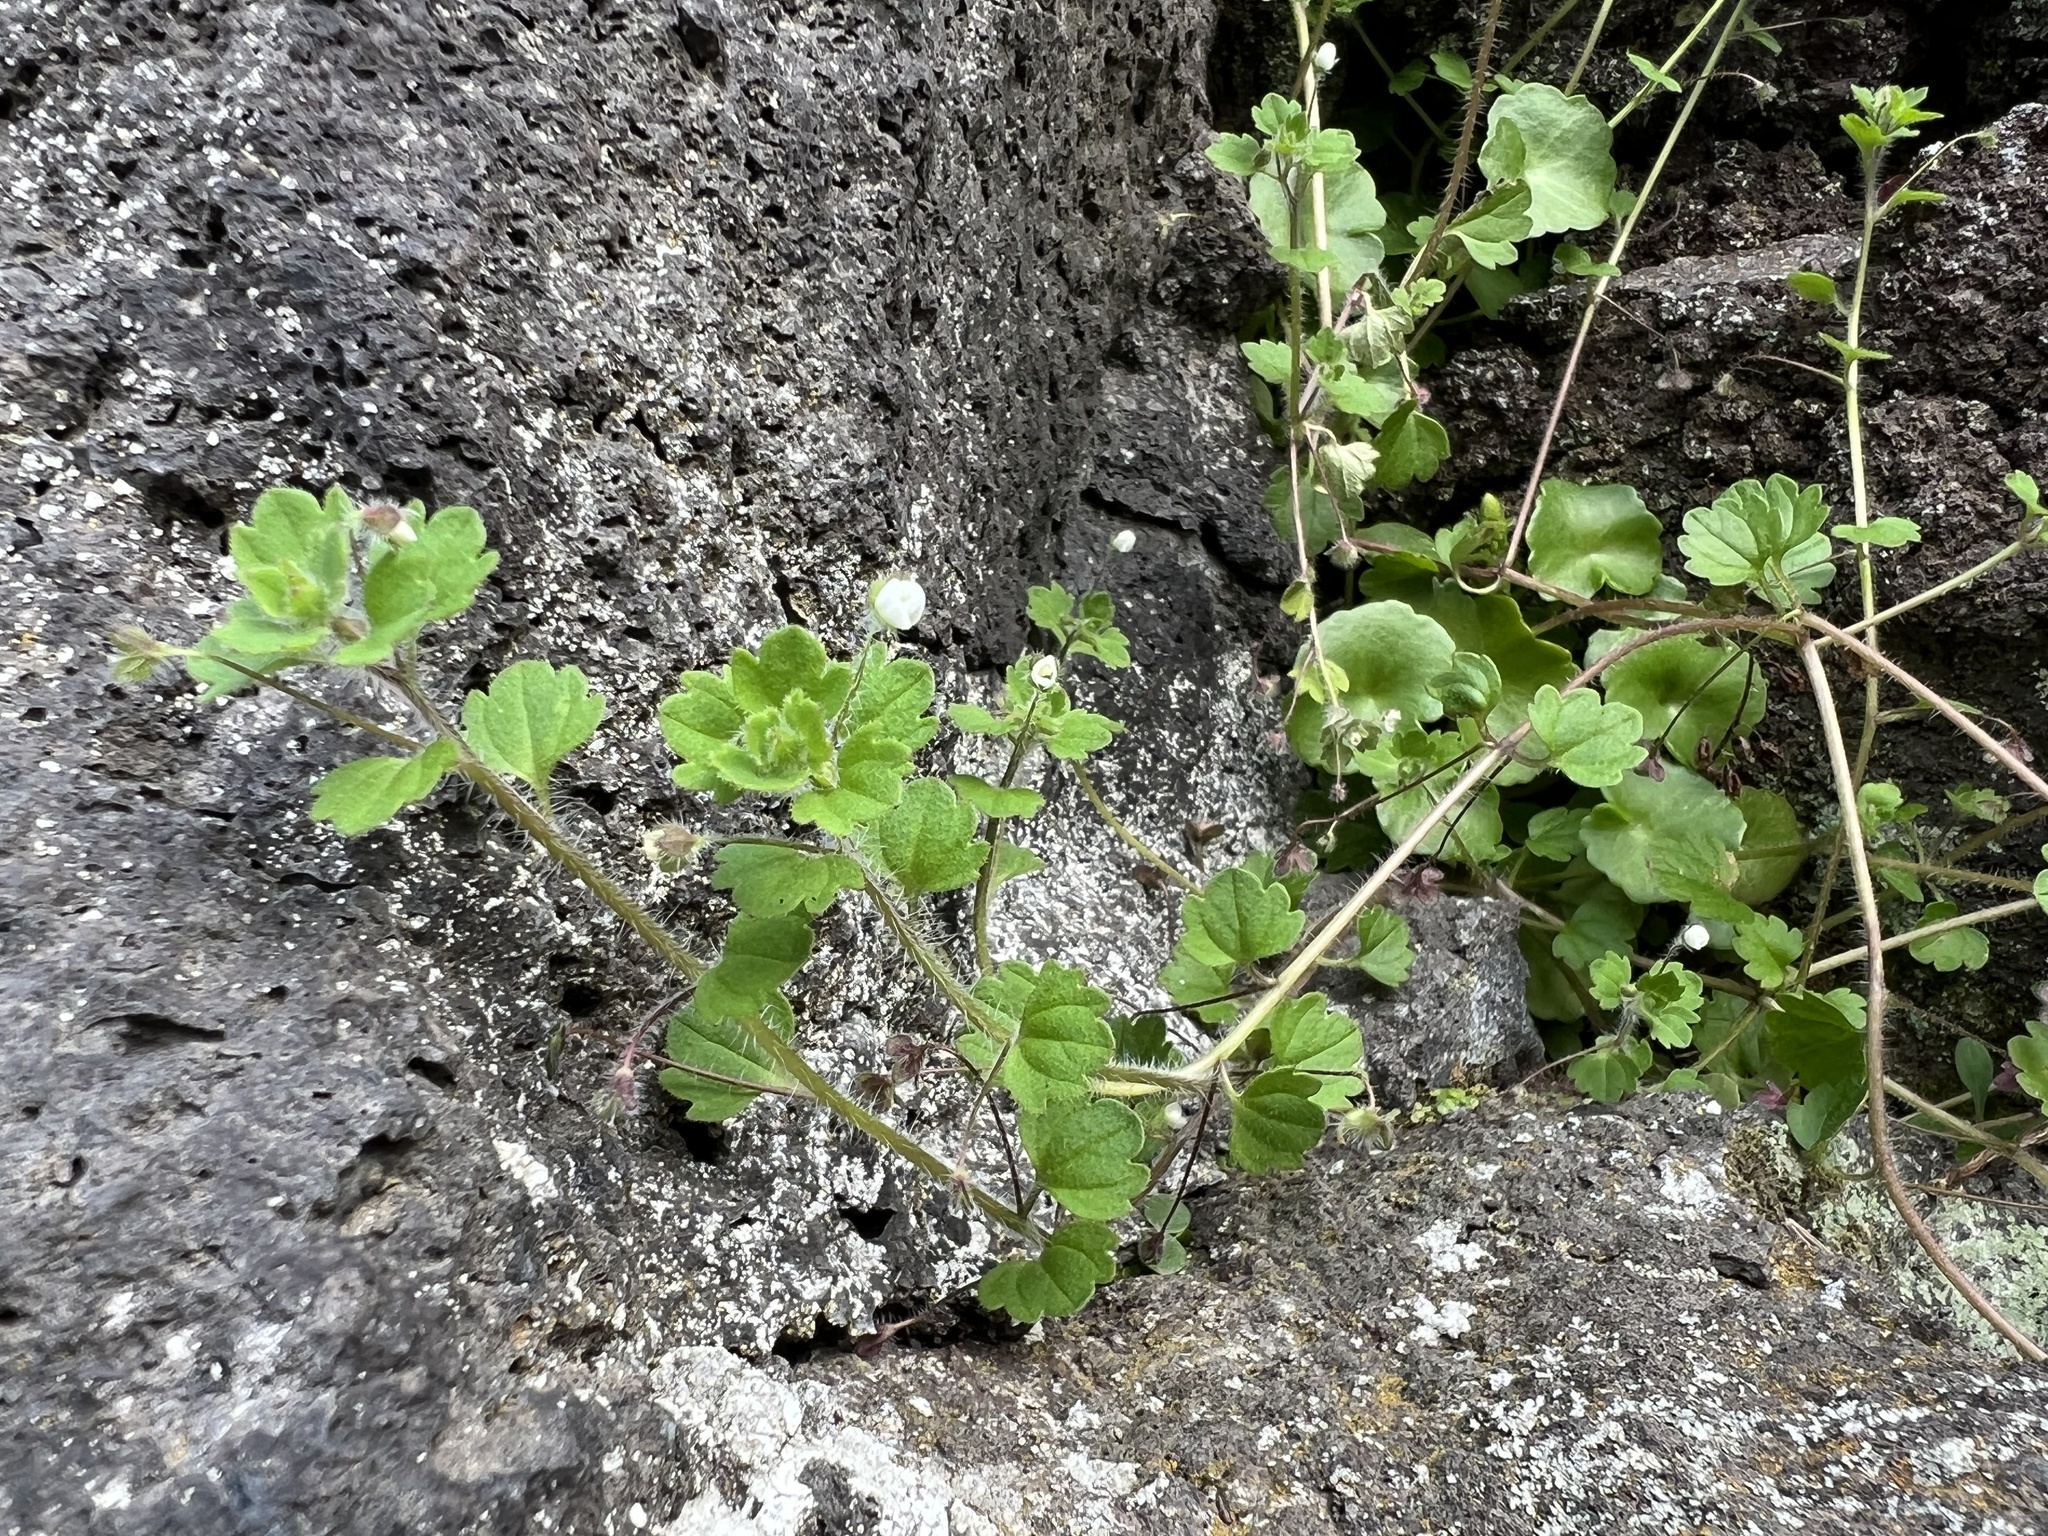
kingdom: Plantae
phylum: Tracheophyta
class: Magnoliopsida
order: Lamiales
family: Plantaginaceae
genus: Veronica
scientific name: Veronica cymbalaria
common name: Pale speedwell
